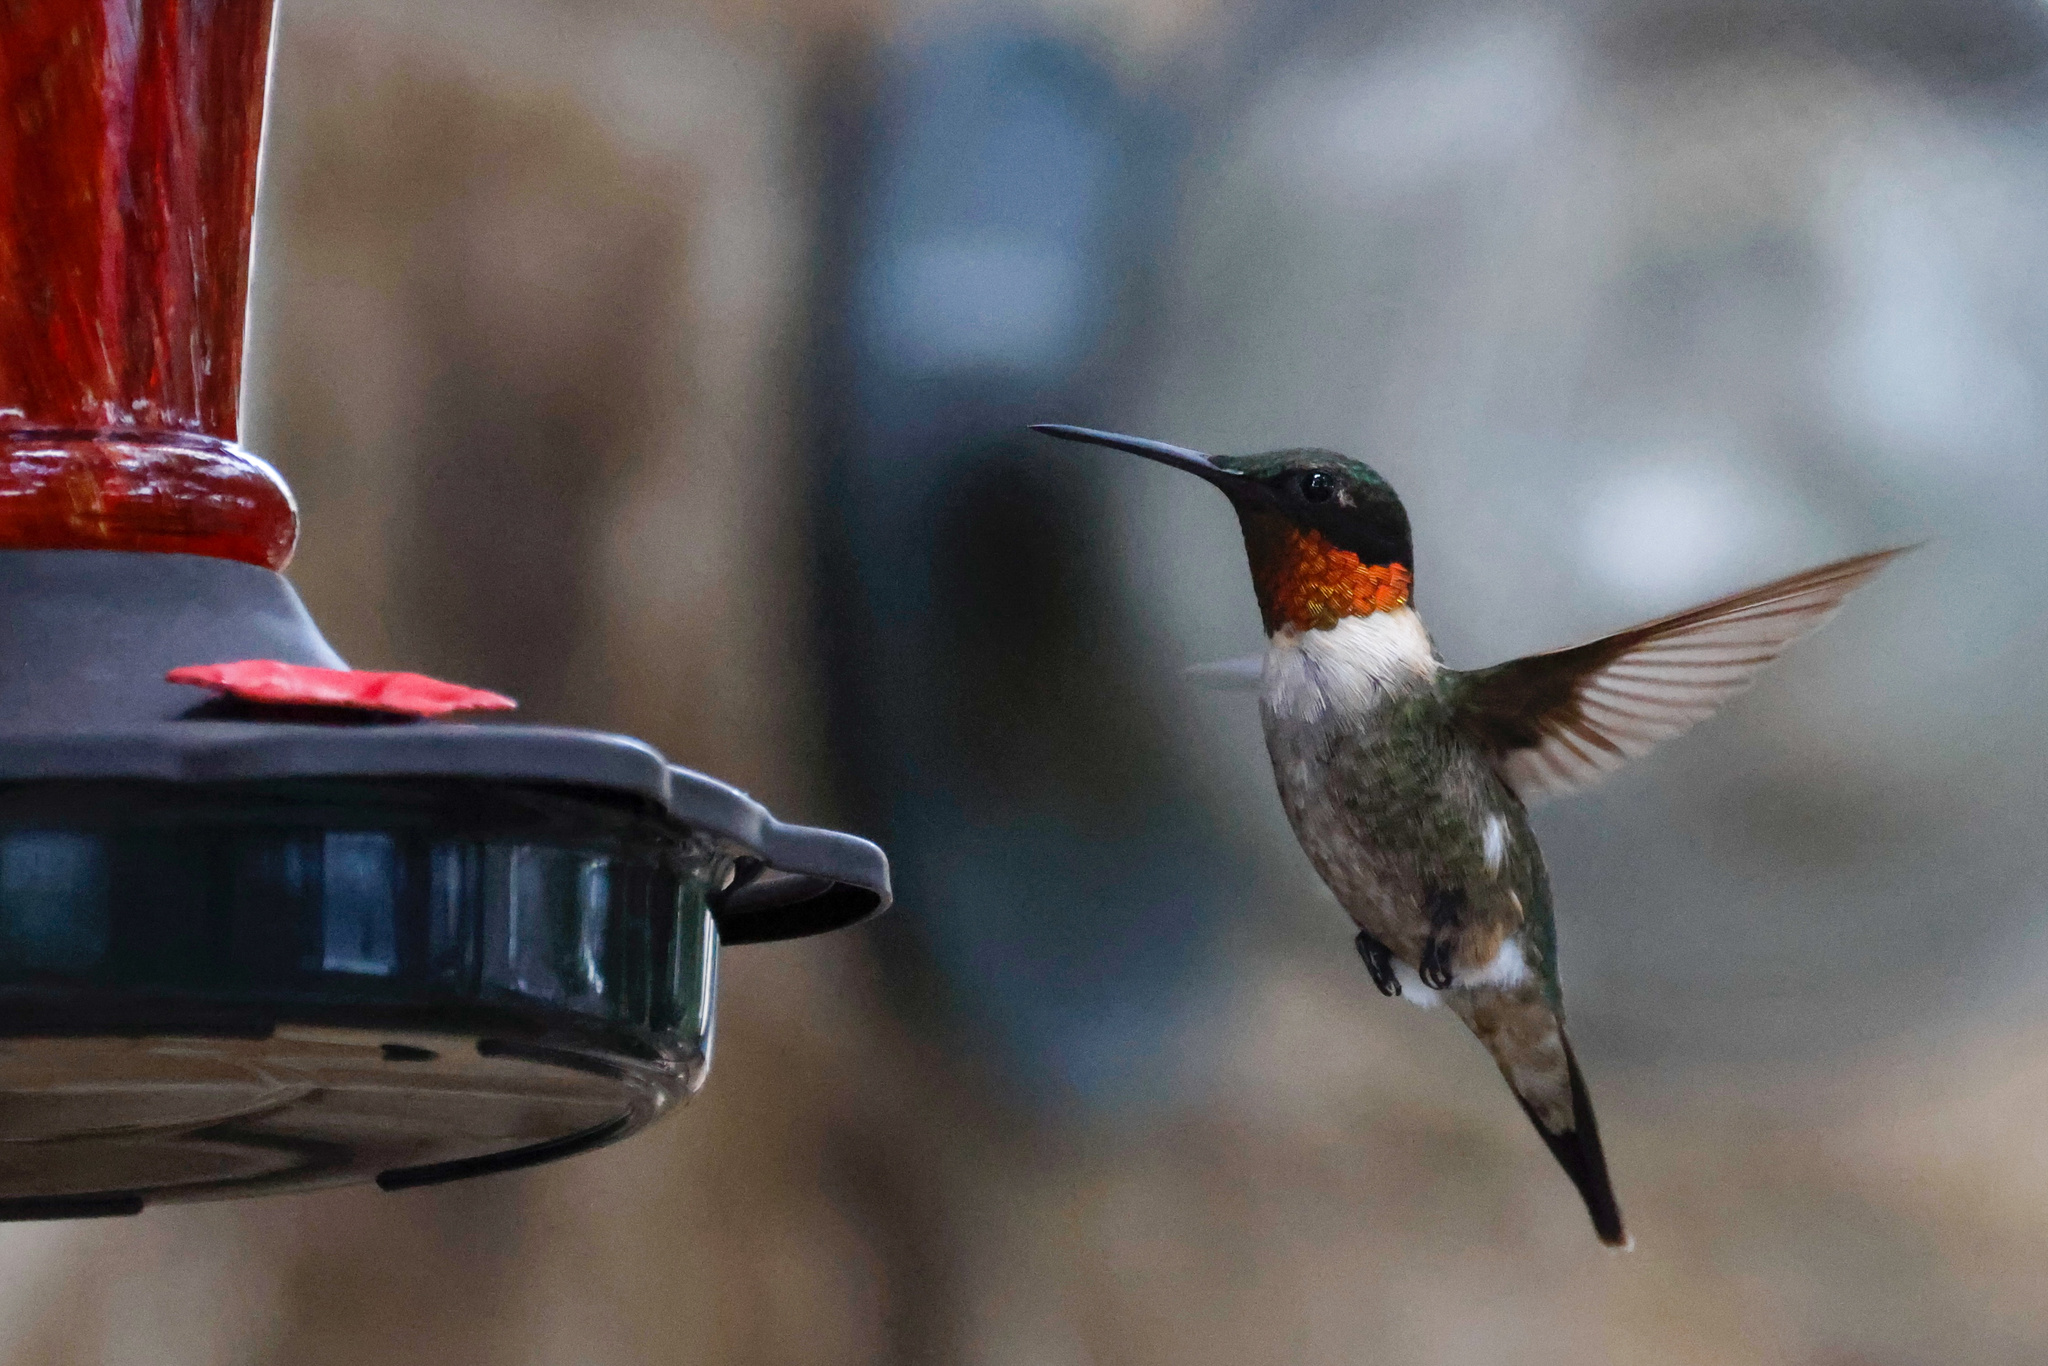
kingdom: Animalia
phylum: Chordata
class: Aves
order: Apodiformes
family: Trochilidae
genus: Archilochus
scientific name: Archilochus colubris
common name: Ruby-throated hummingbird
